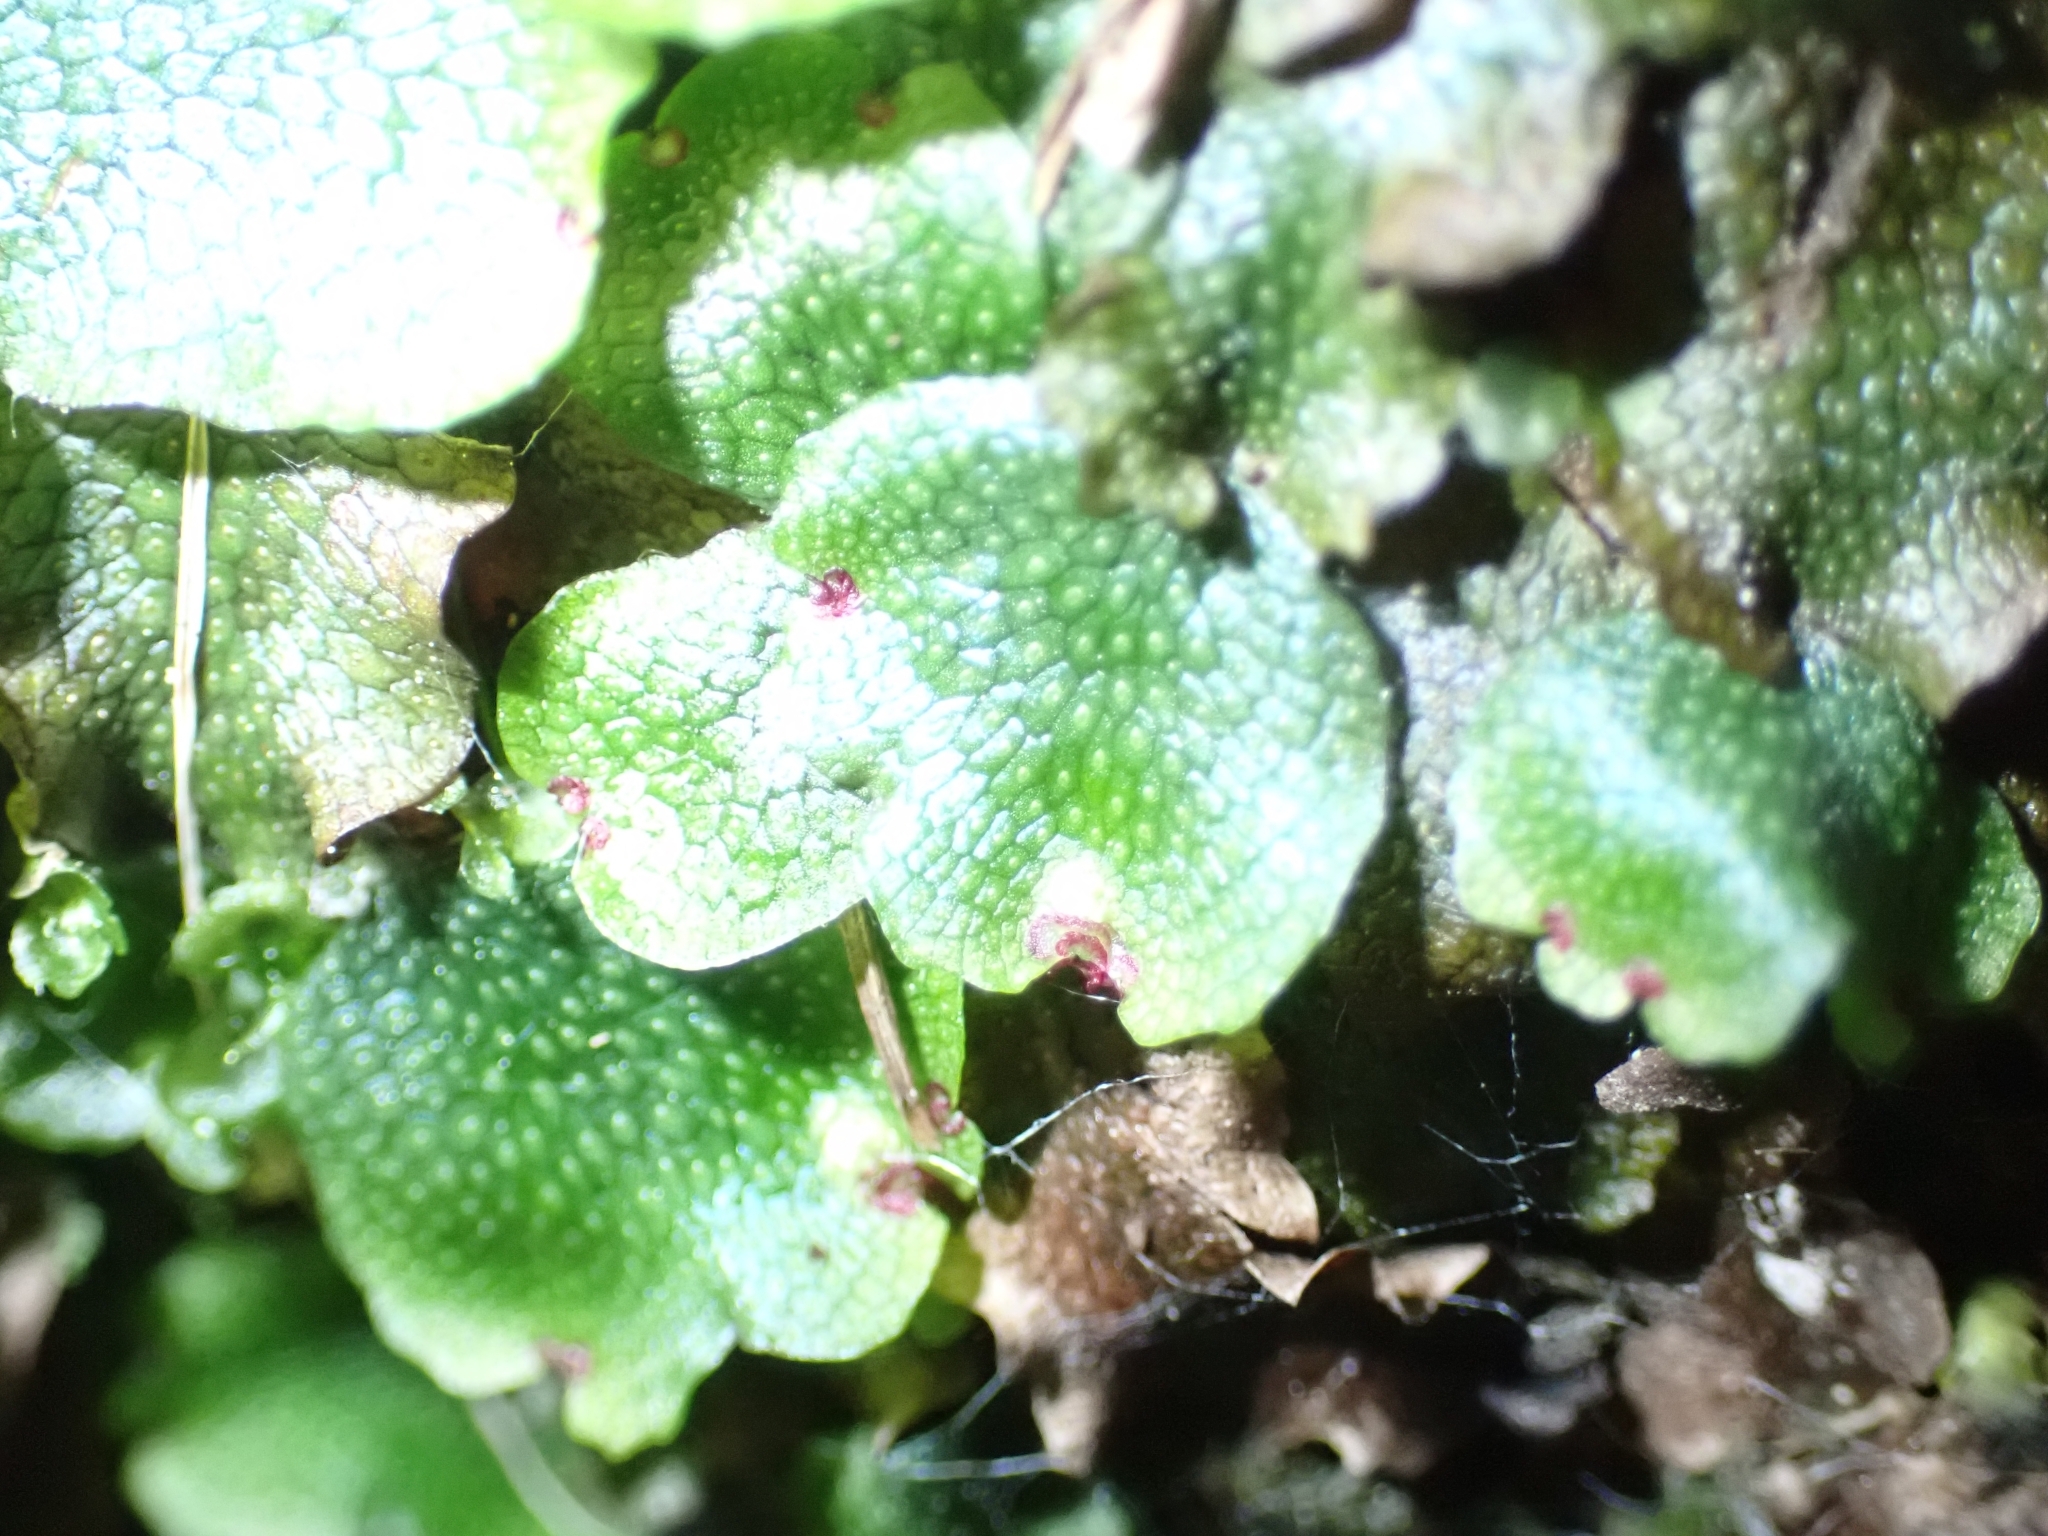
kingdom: Plantae
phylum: Marchantiophyta
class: Marchantiopsida
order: Marchantiales
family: Conocephalaceae
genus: Conocephalum
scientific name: Conocephalum salebrosum
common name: Cat-tongue liverwort
